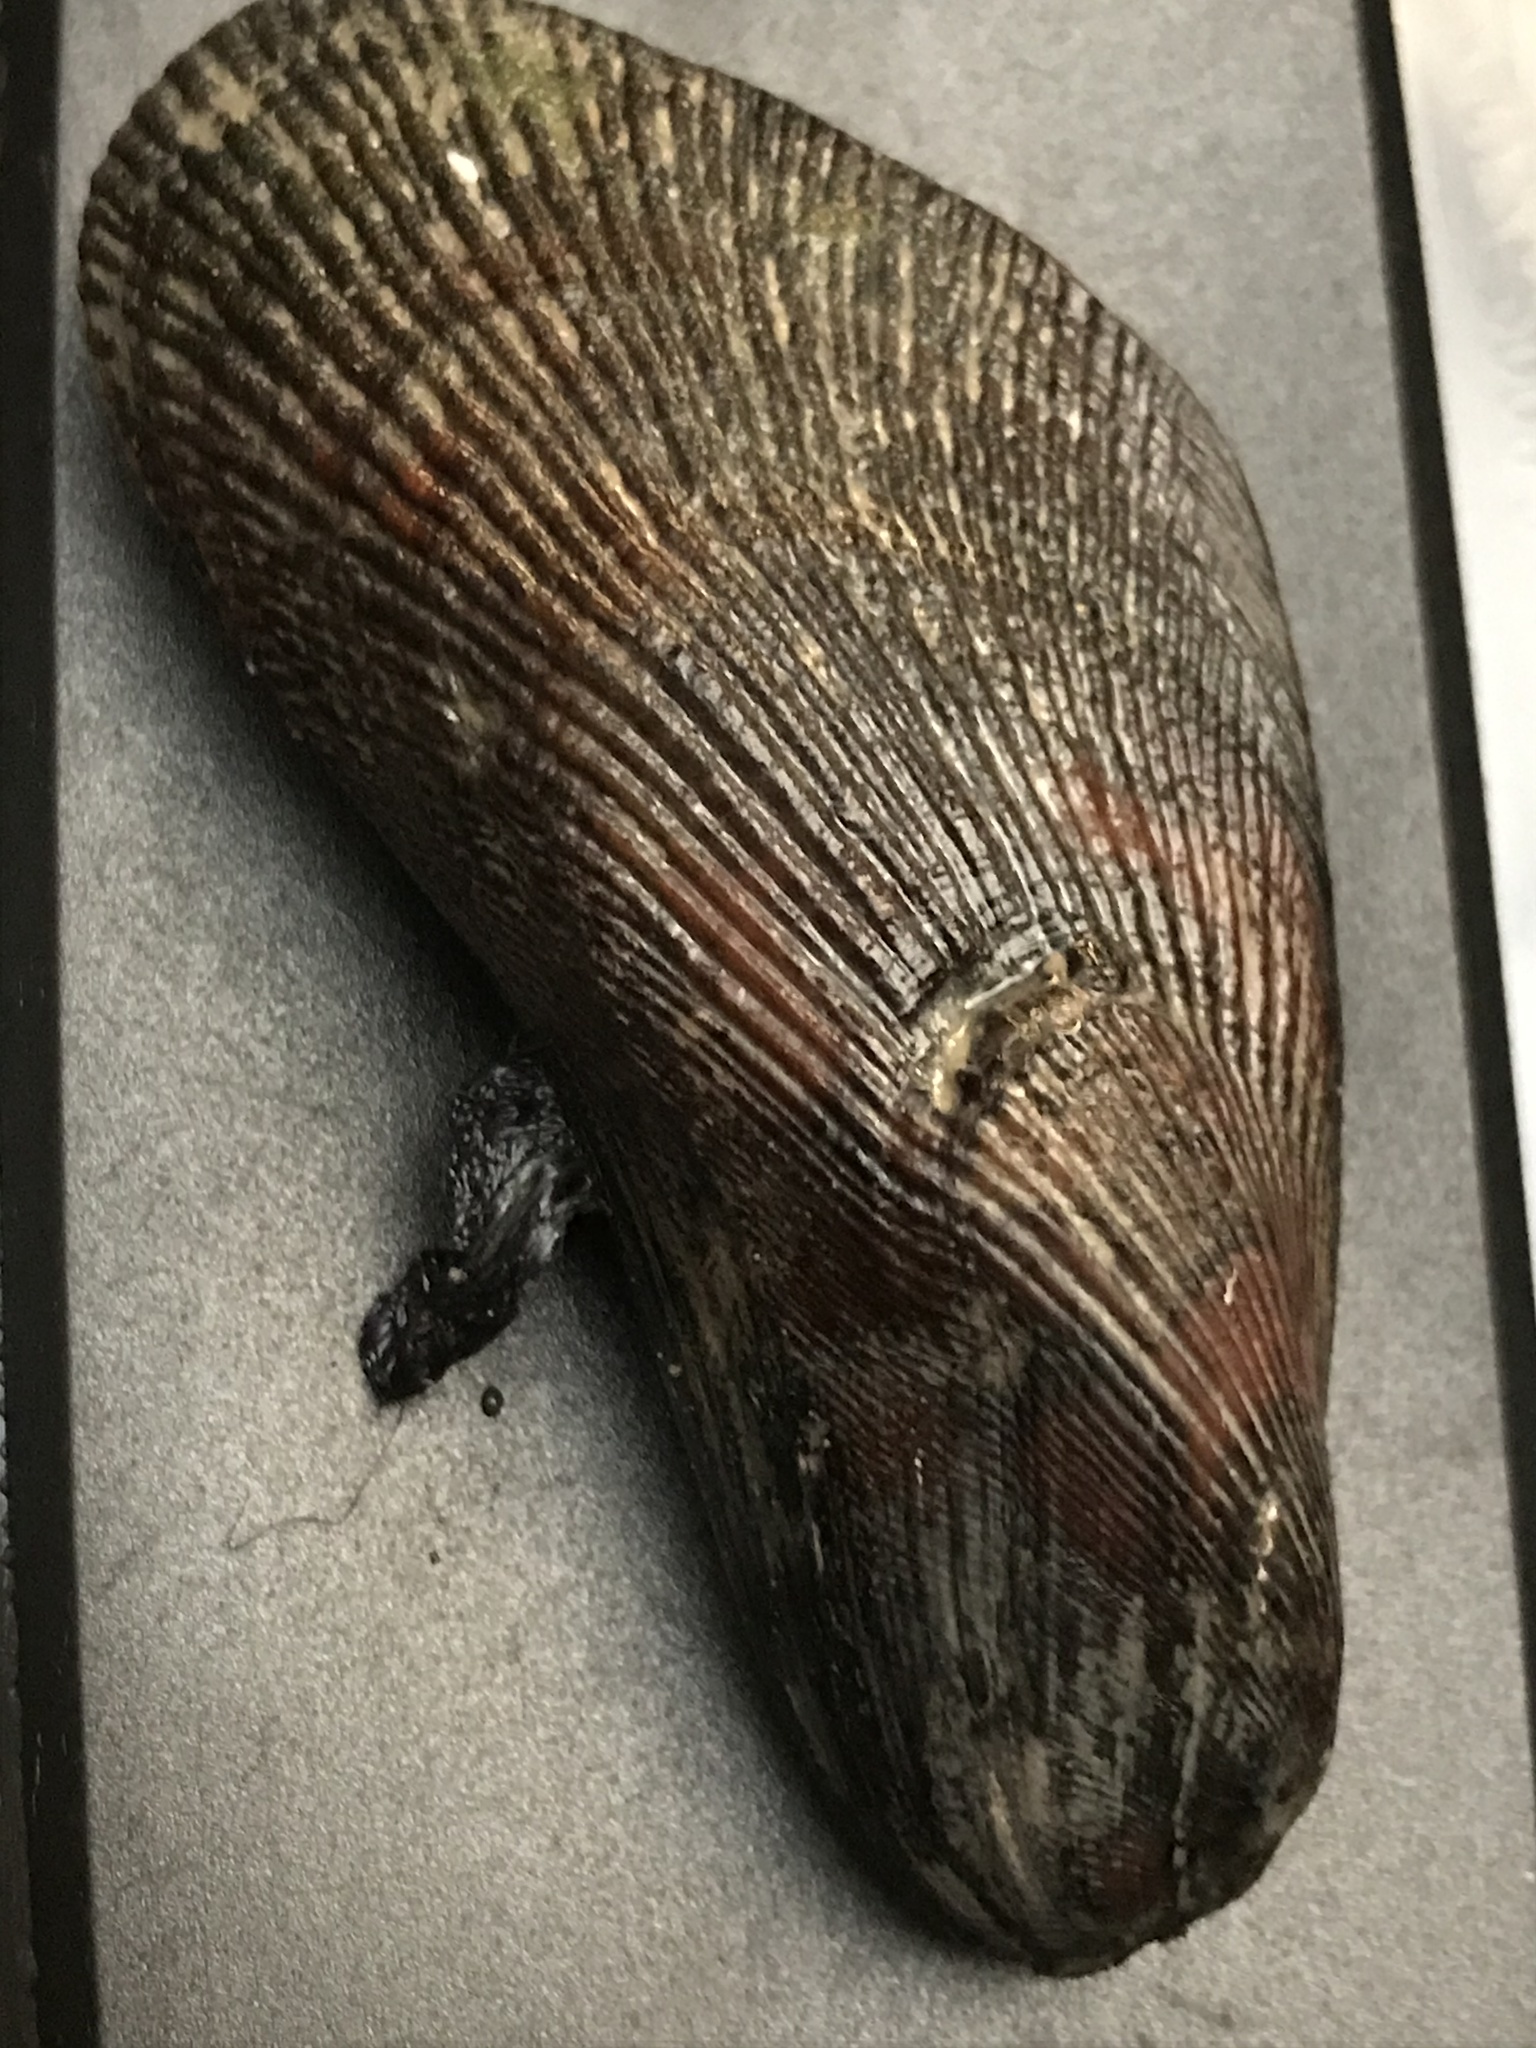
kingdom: Animalia
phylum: Mollusca
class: Bivalvia
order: Mytilida
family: Mytilidae
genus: Geukensia
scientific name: Geukensia demissa
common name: Ribbed mussel
